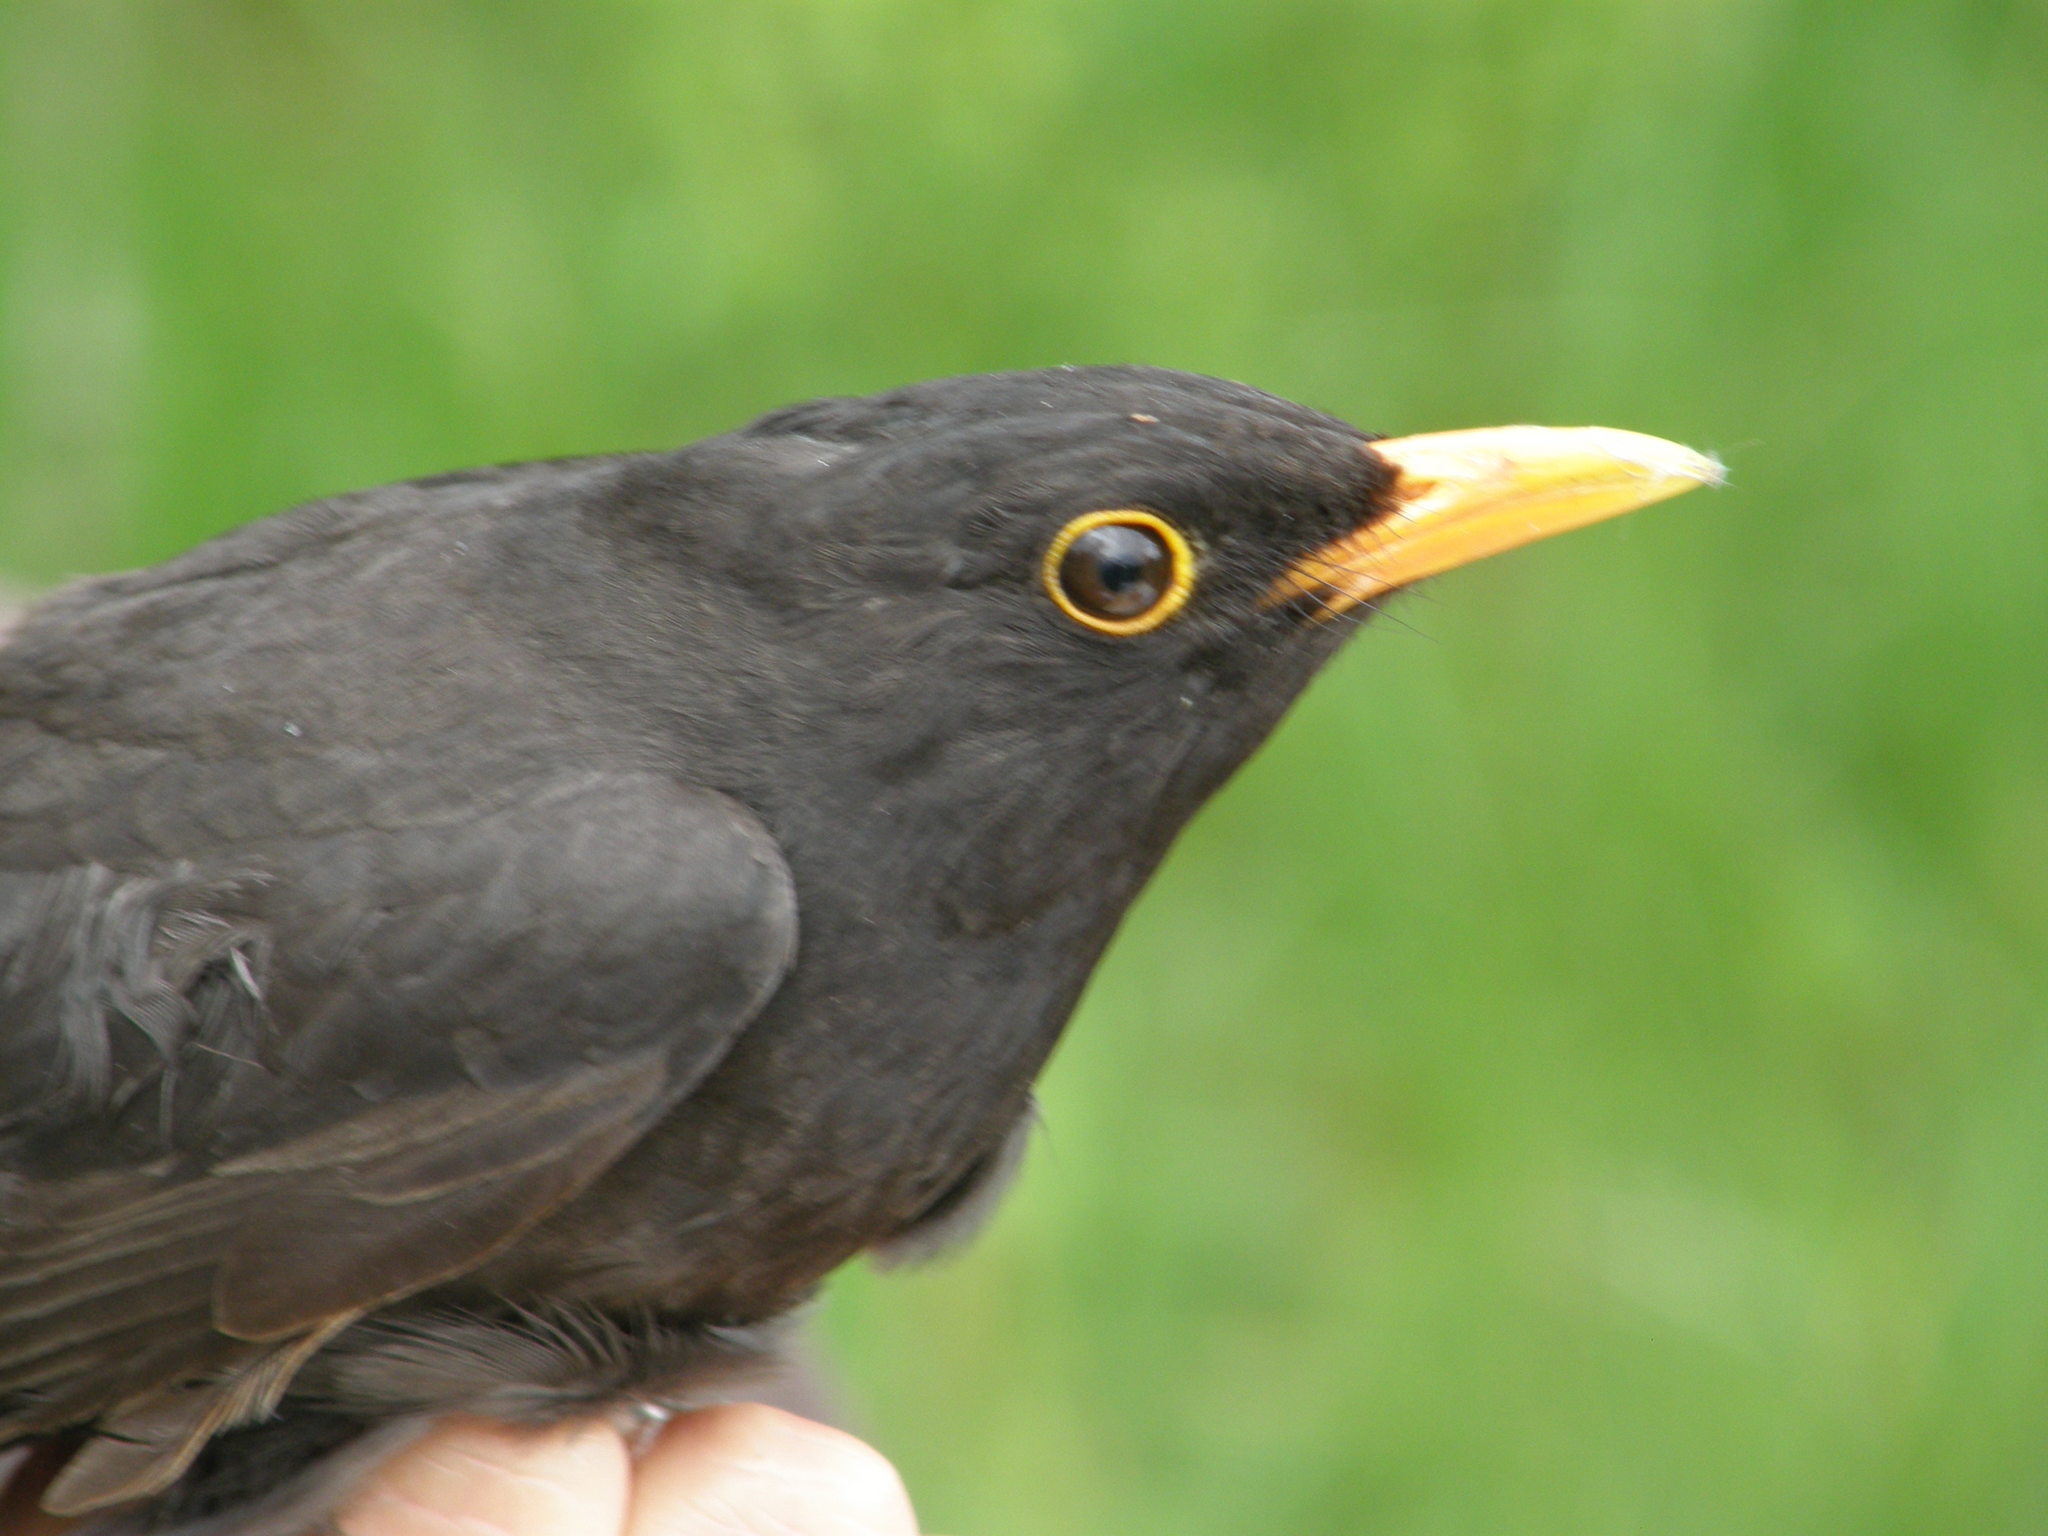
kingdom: Animalia
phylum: Chordata
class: Aves
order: Passeriformes
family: Turdidae
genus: Turdus
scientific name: Turdus merula
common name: Common blackbird
